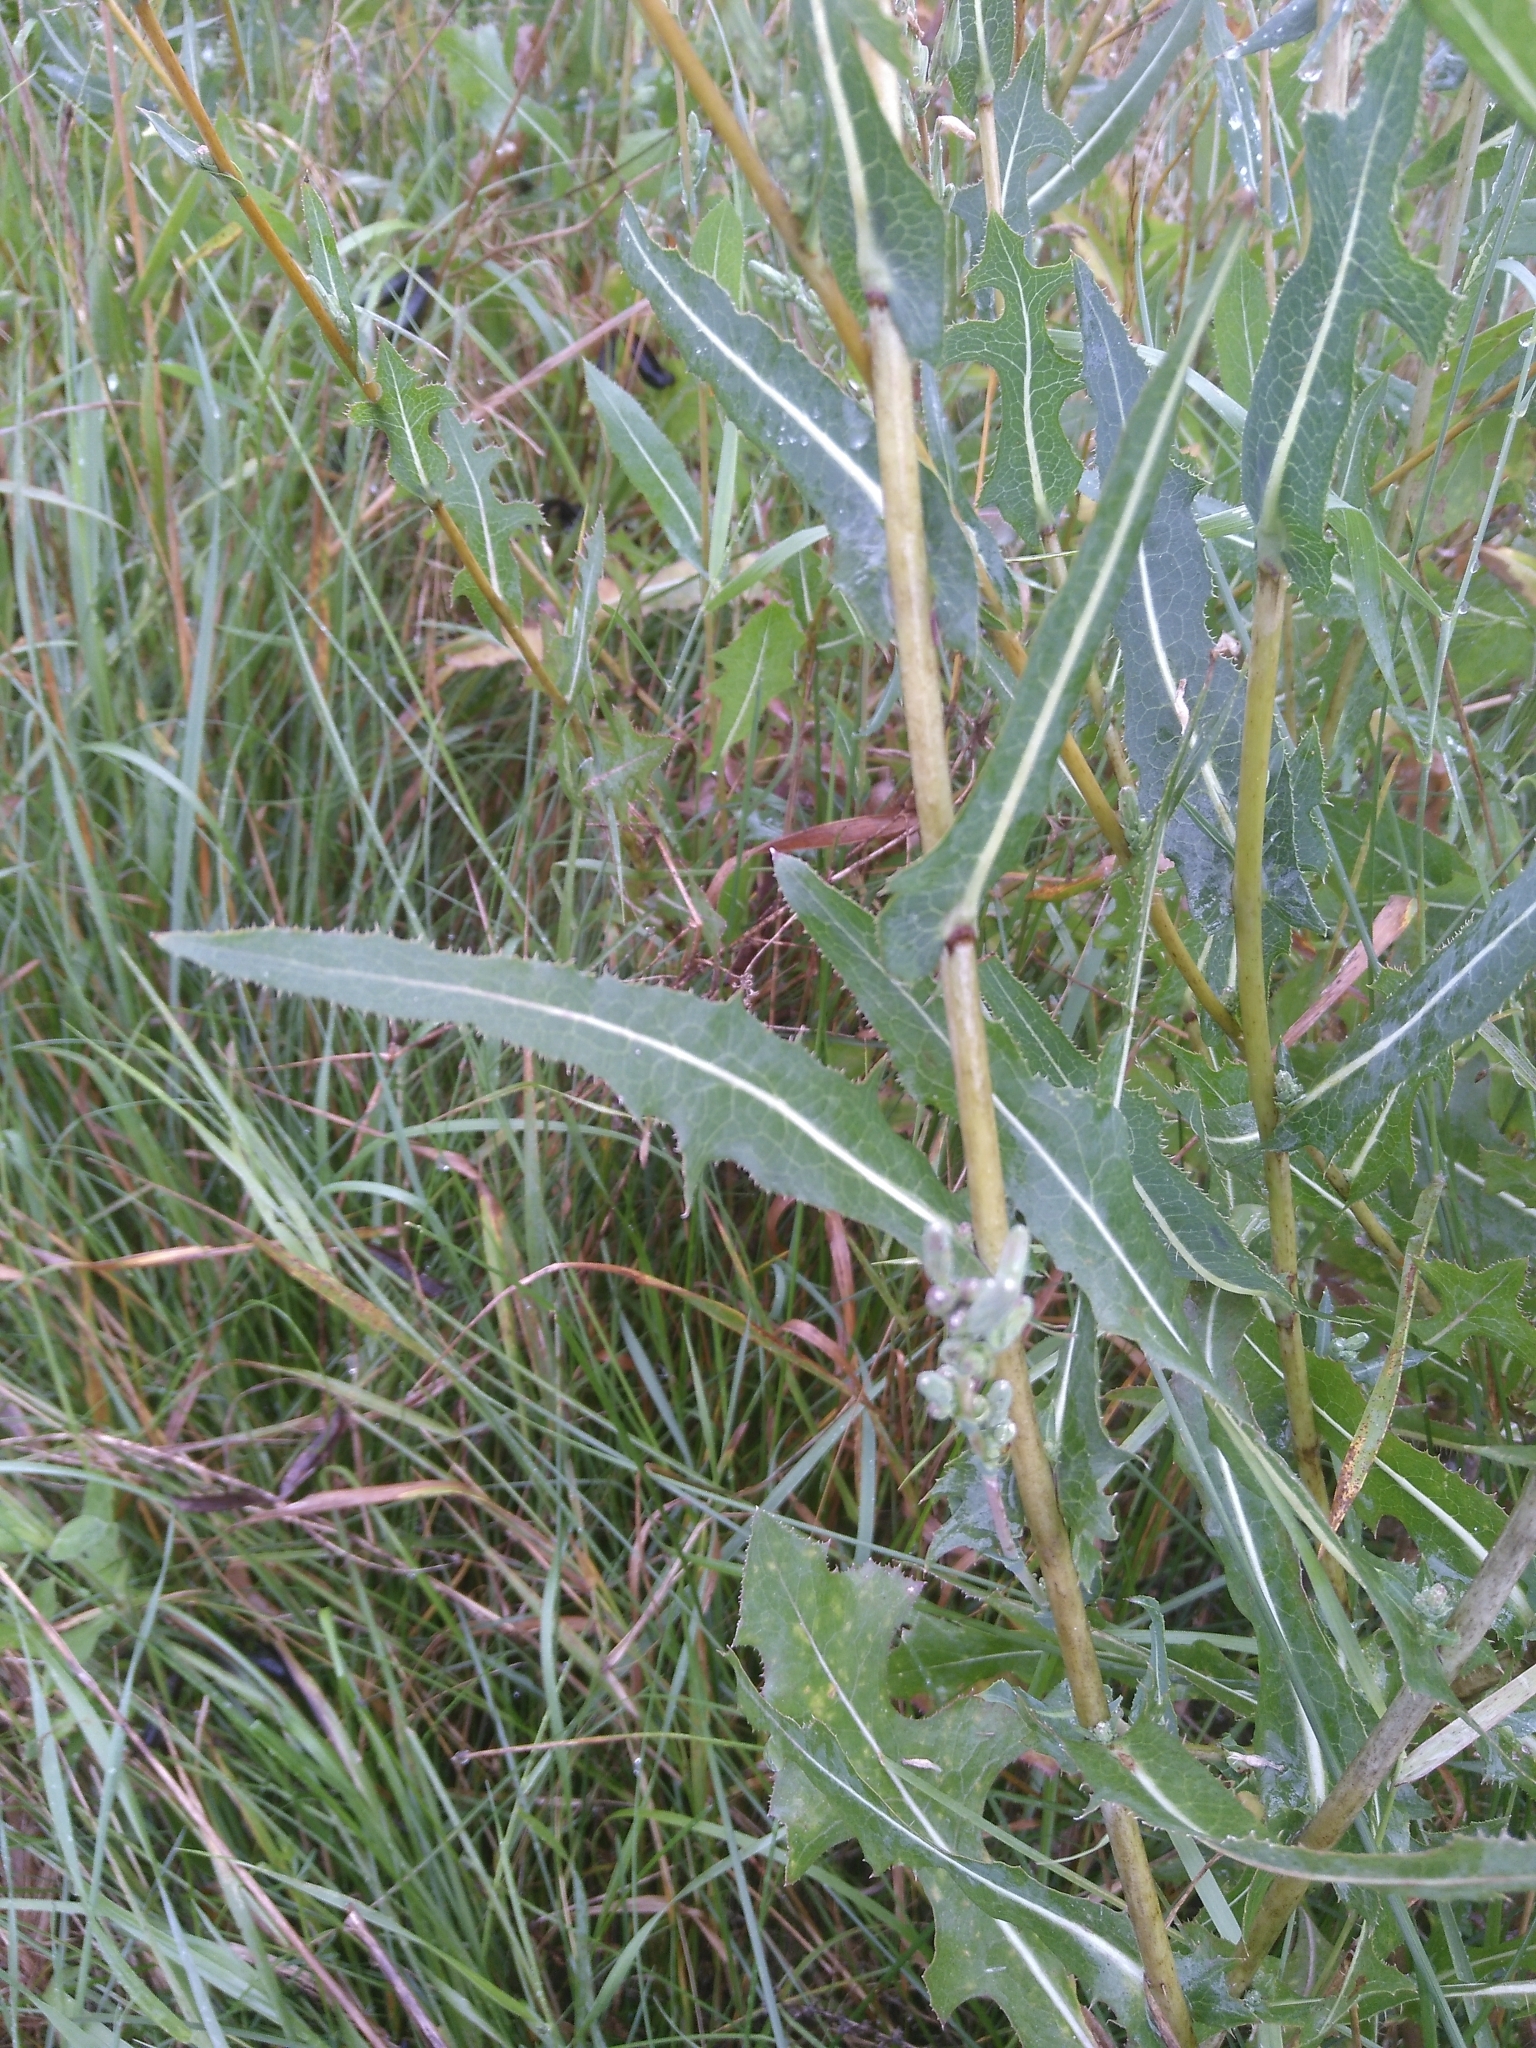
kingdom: Plantae
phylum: Tracheophyta
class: Magnoliopsida
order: Asterales
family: Asteraceae
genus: Lactuca
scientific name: Lactuca serriola
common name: Prickly lettuce
